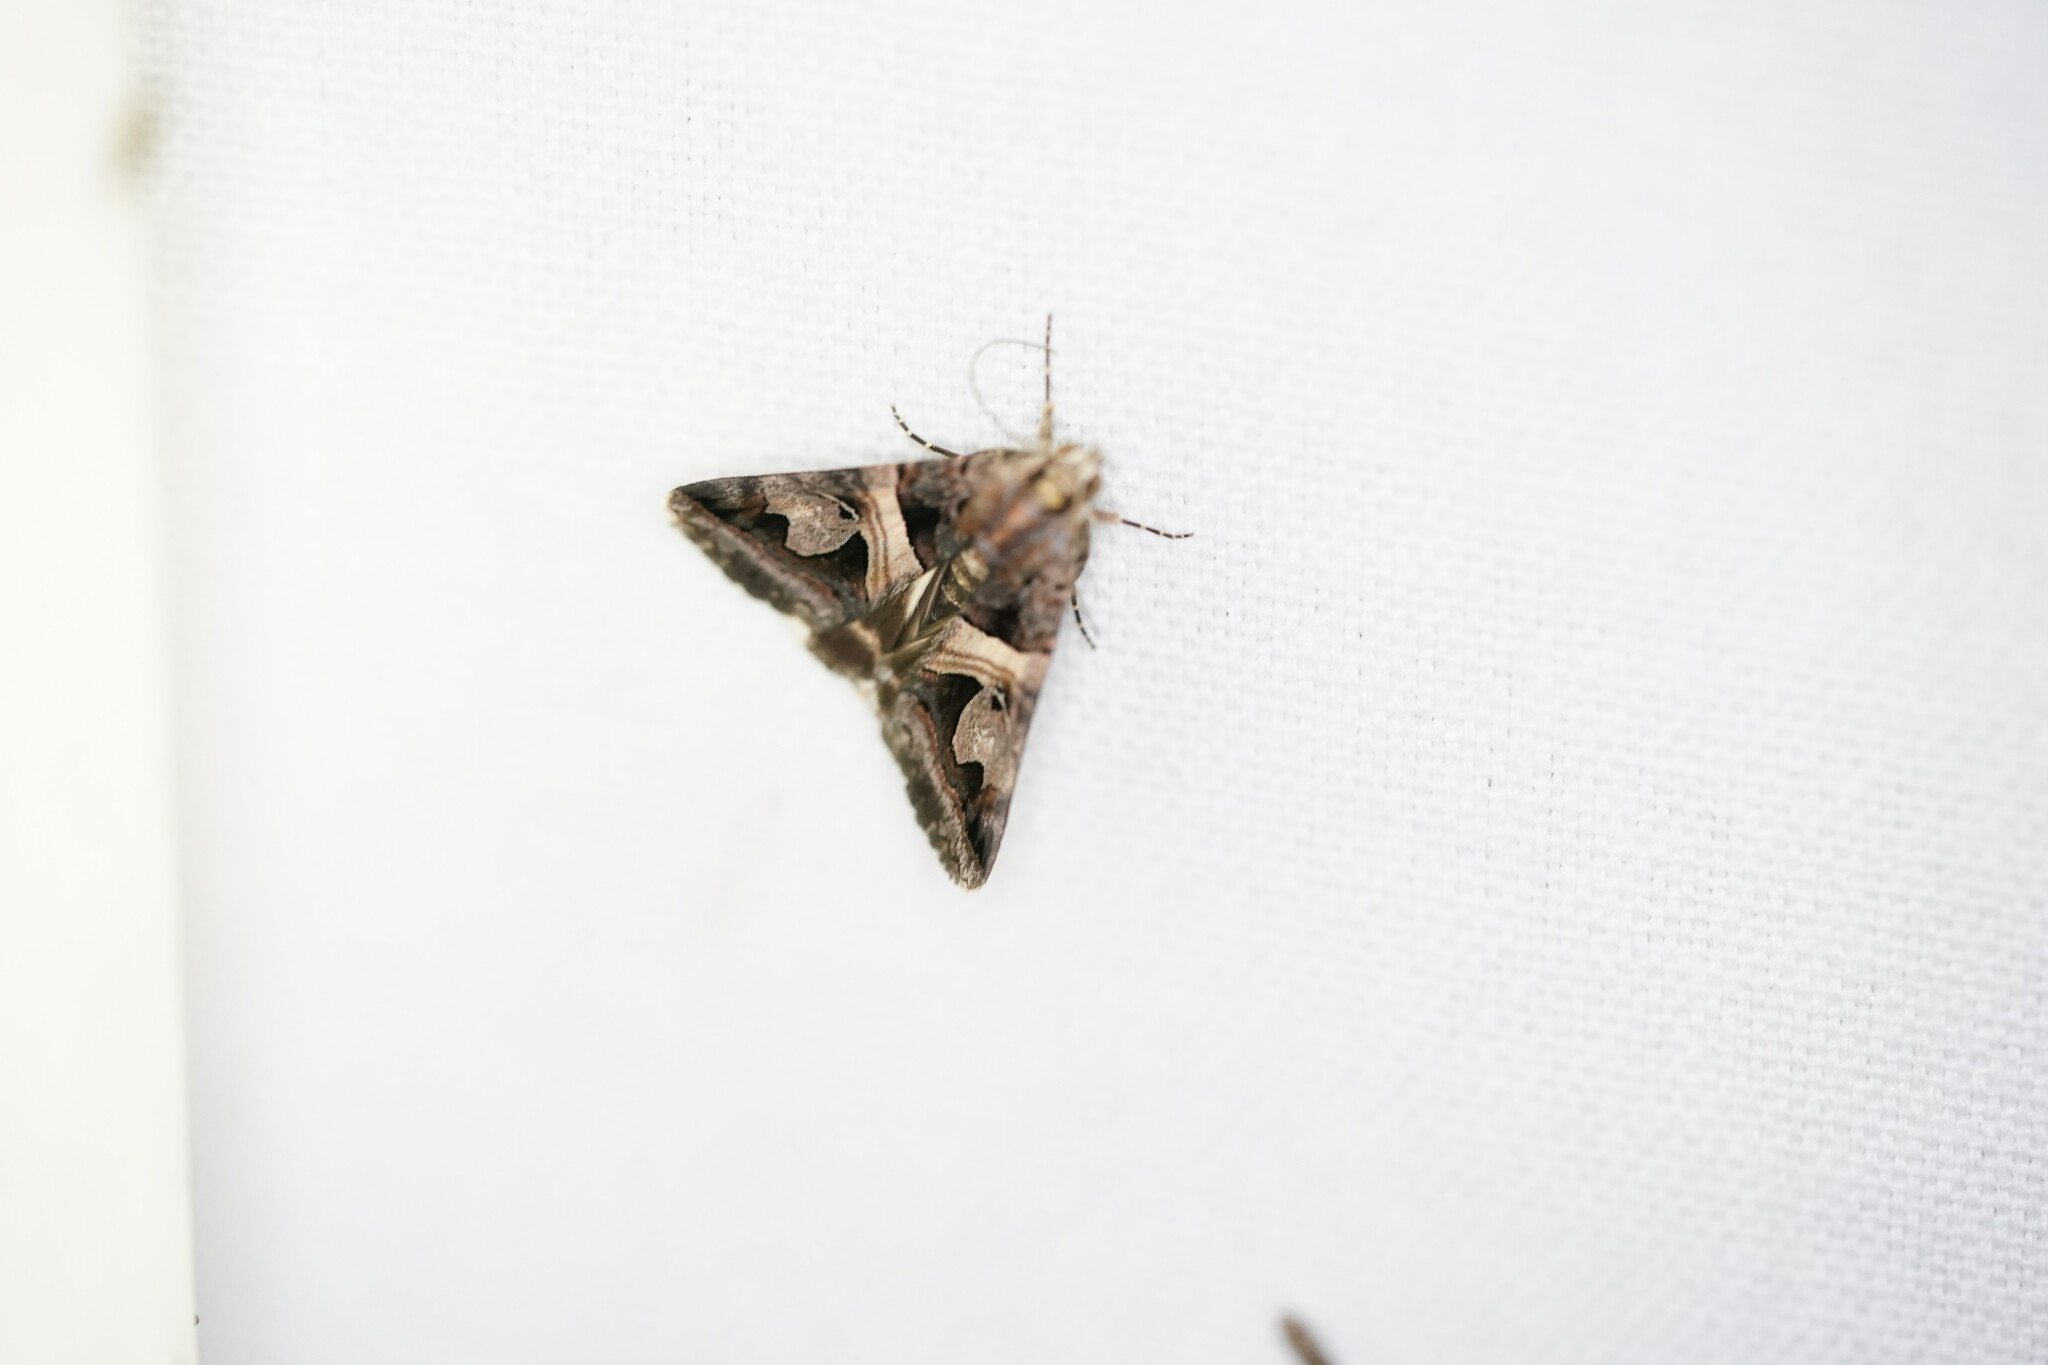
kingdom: Animalia
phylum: Arthropoda
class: Insecta
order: Lepidoptera
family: Erebidae
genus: Drasteria
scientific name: Drasteria grandirena
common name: Figure-seven moth
